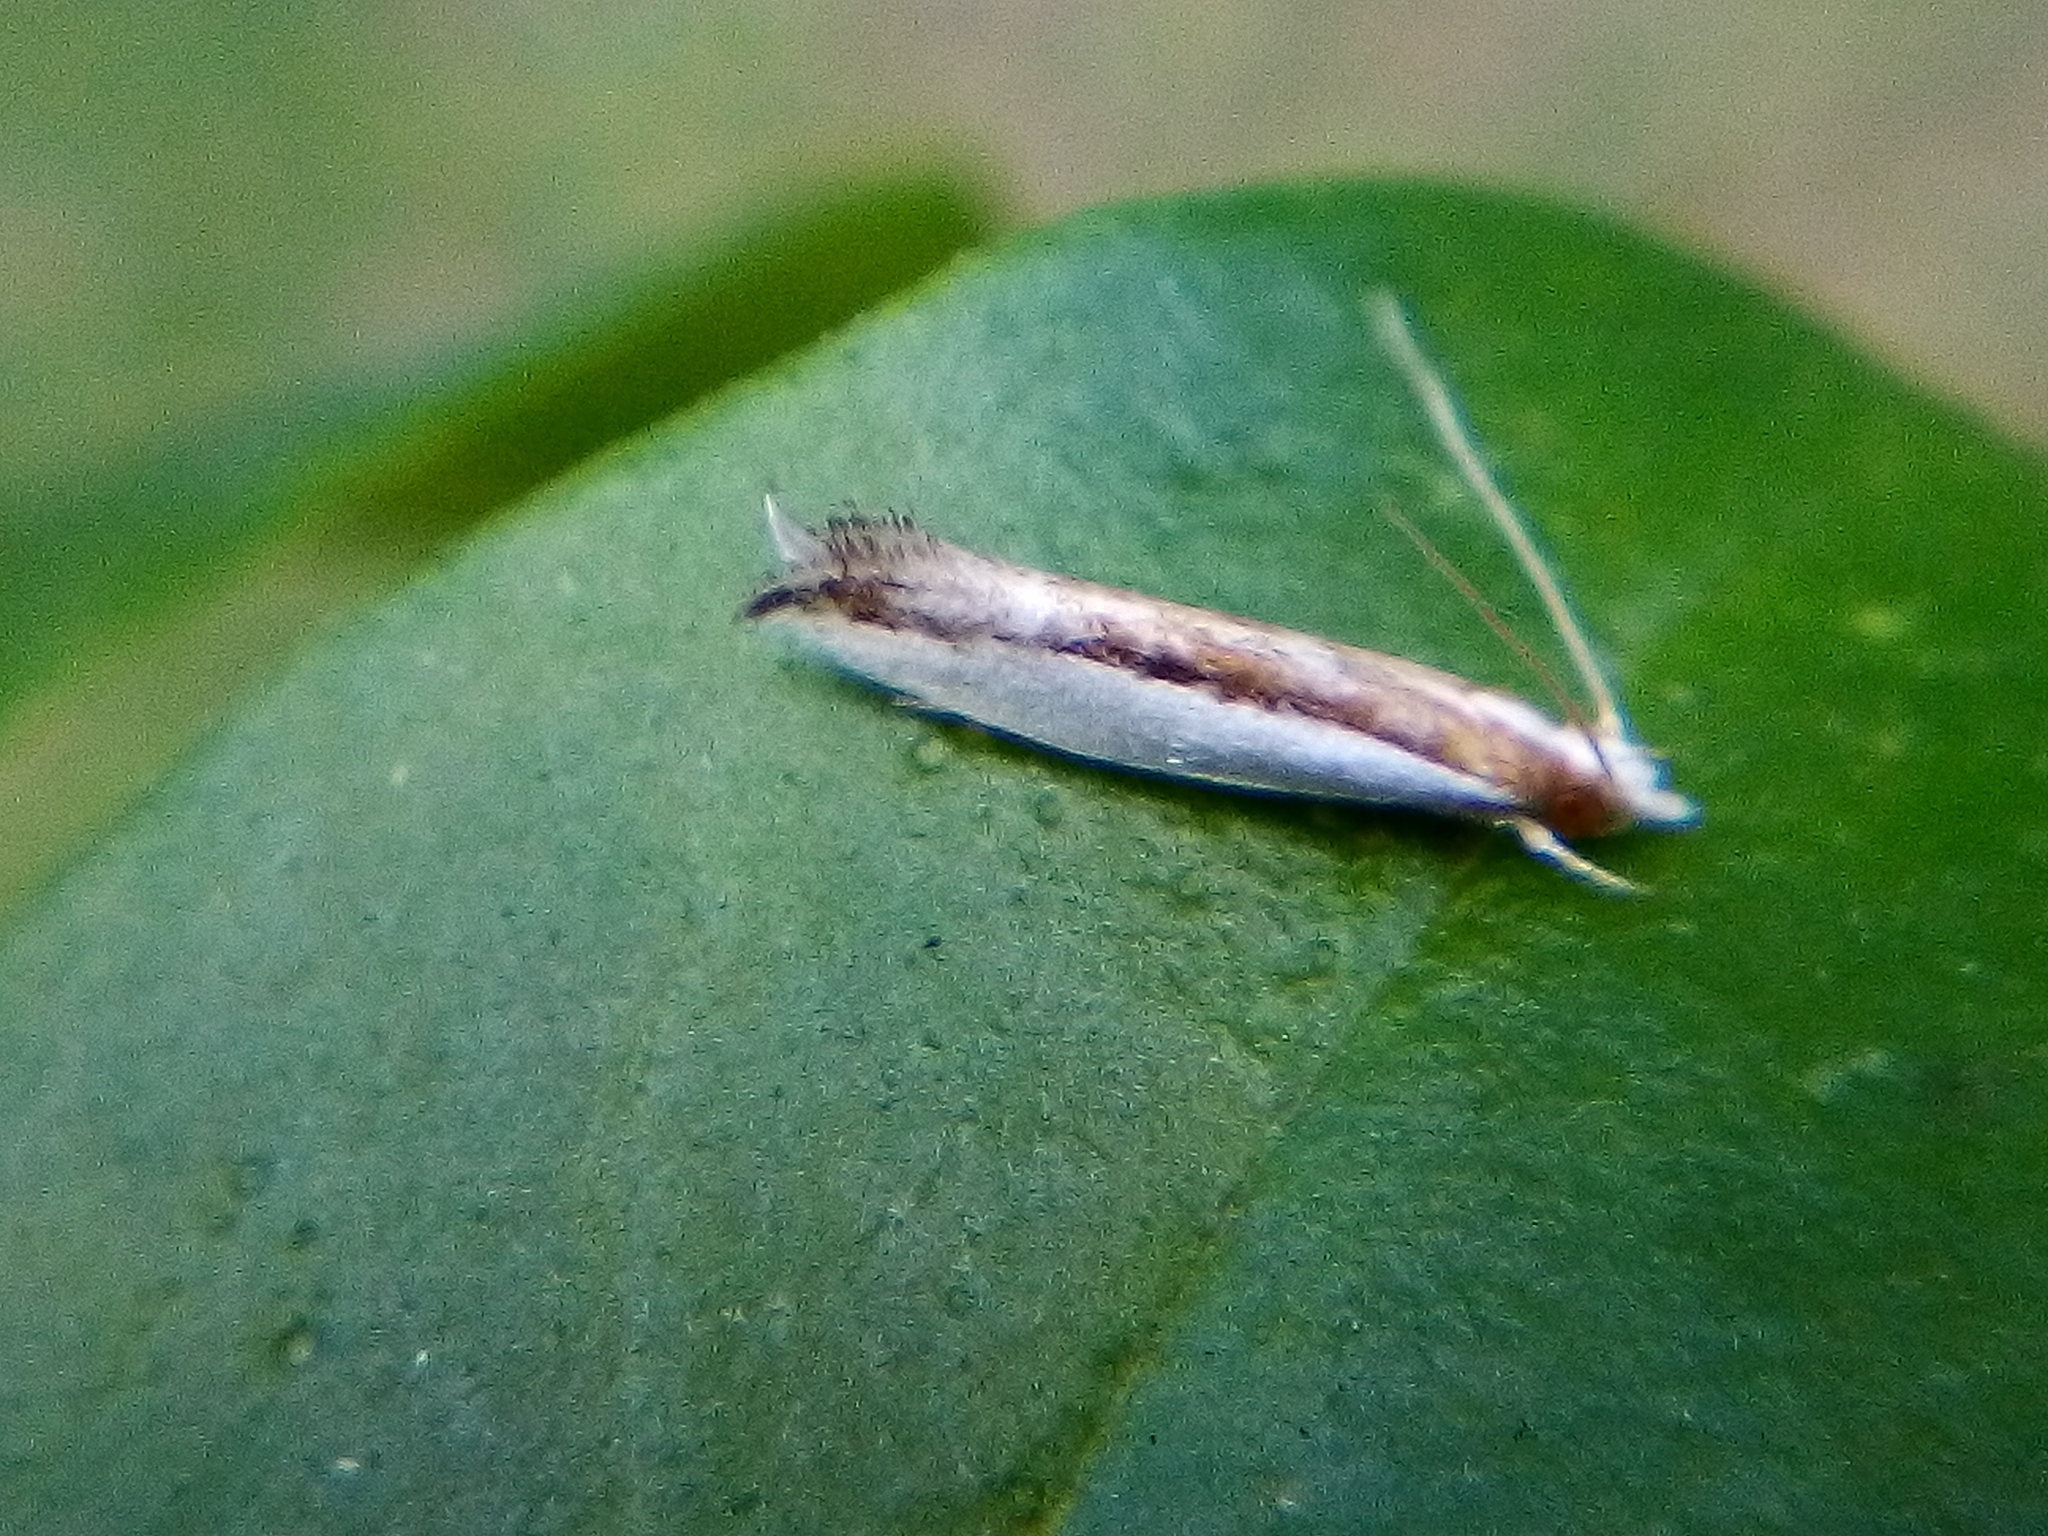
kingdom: Animalia
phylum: Arthropoda
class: Insecta
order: Lepidoptera
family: Tineidae
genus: Erechthias
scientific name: Erechthias chionodira
